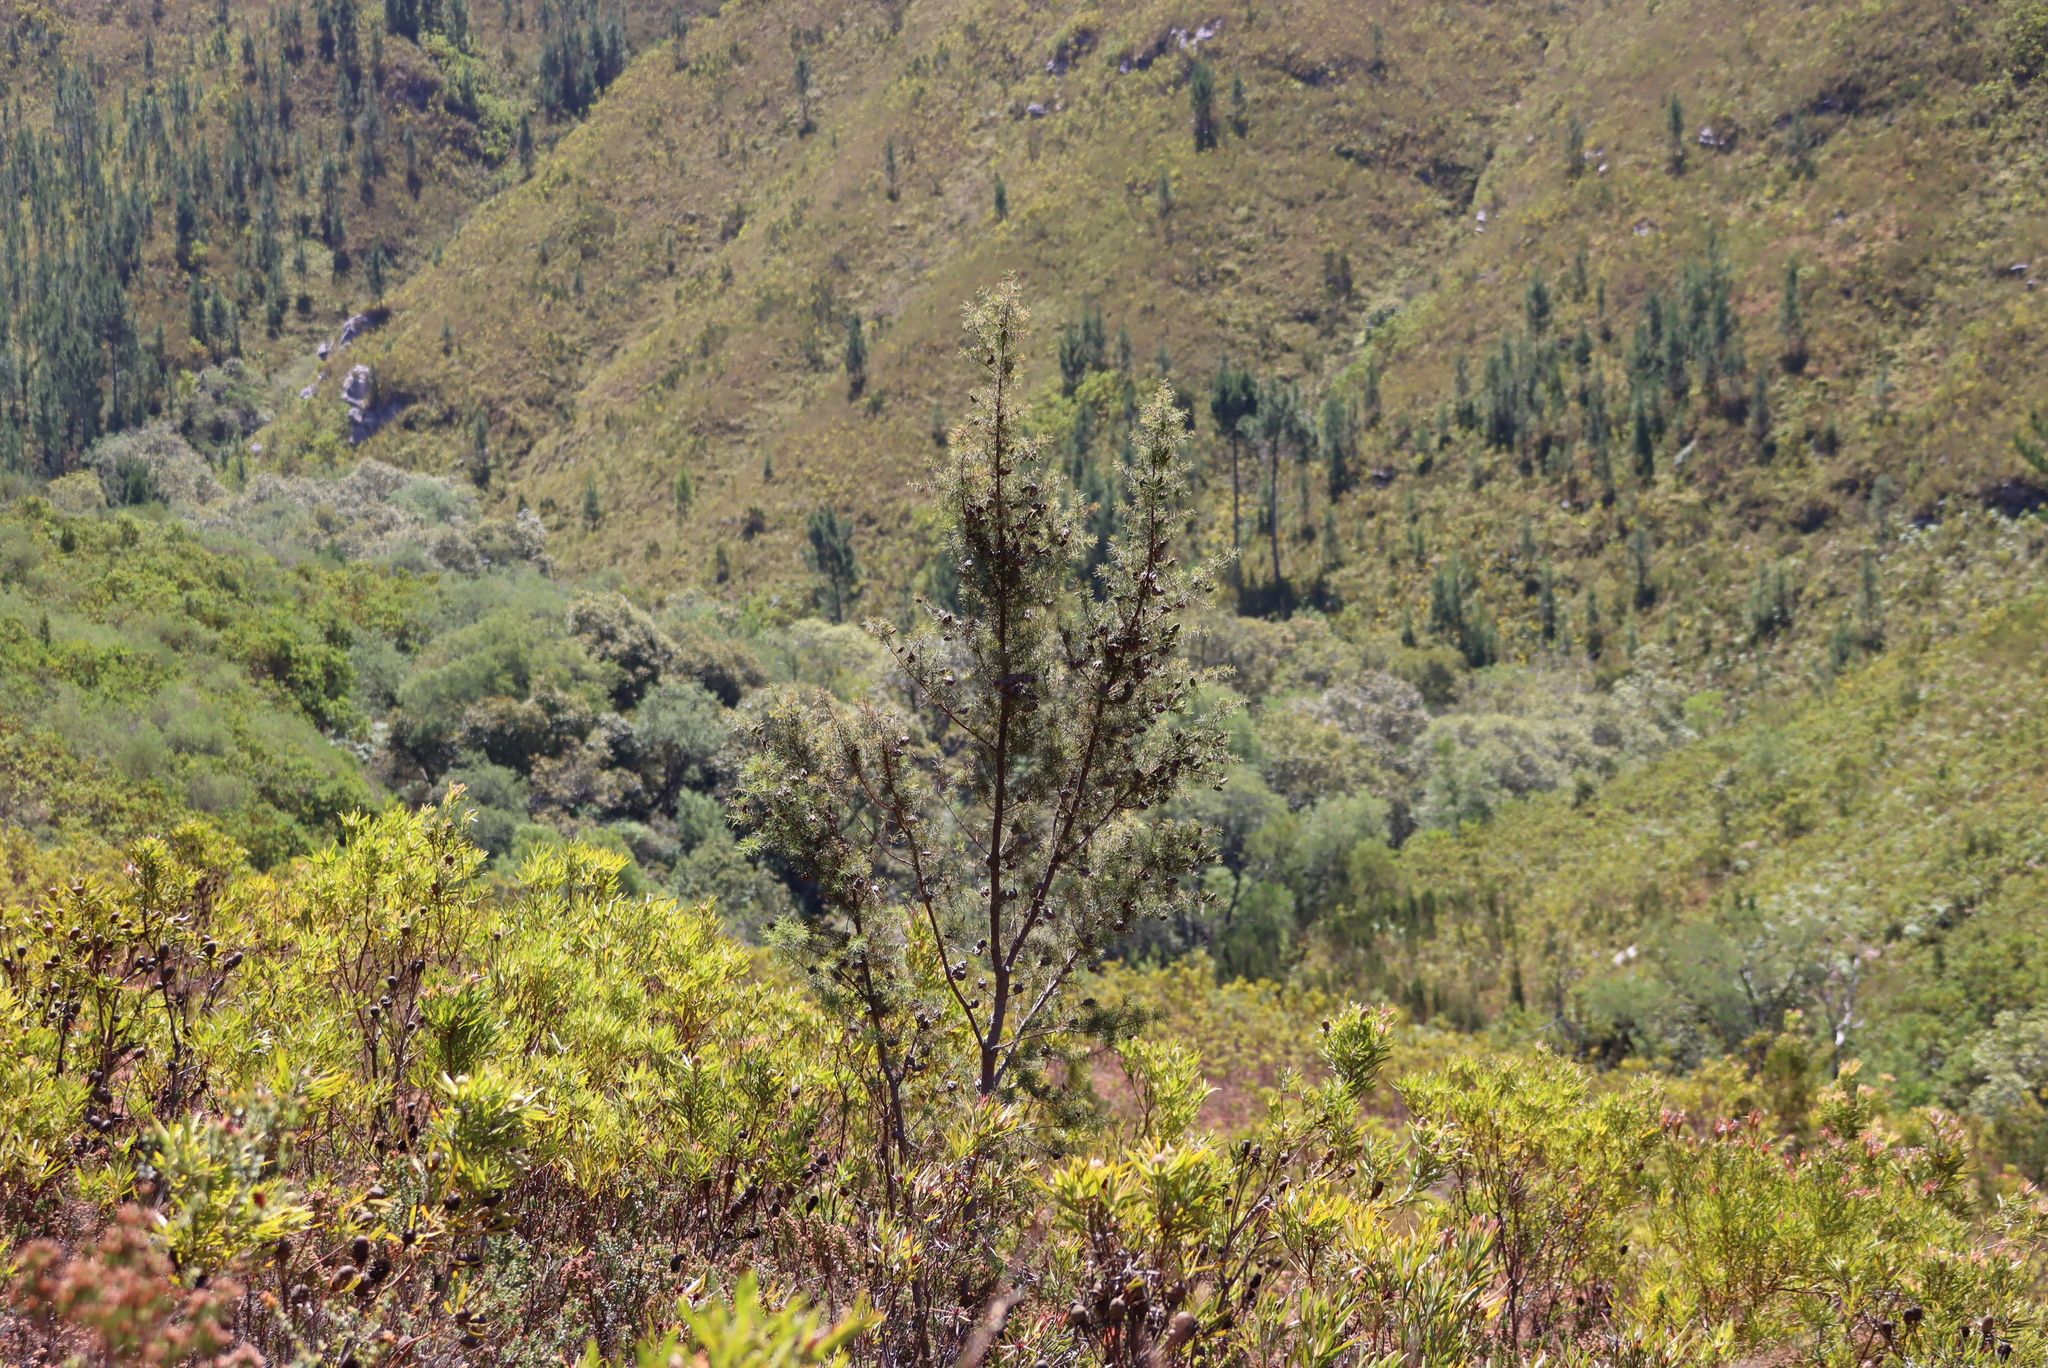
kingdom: Plantae
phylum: Tracheophyta
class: Magnoliopsida
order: Proteales
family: Proteaceae
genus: Hakea
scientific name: Hakea sericea
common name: Needle bush
